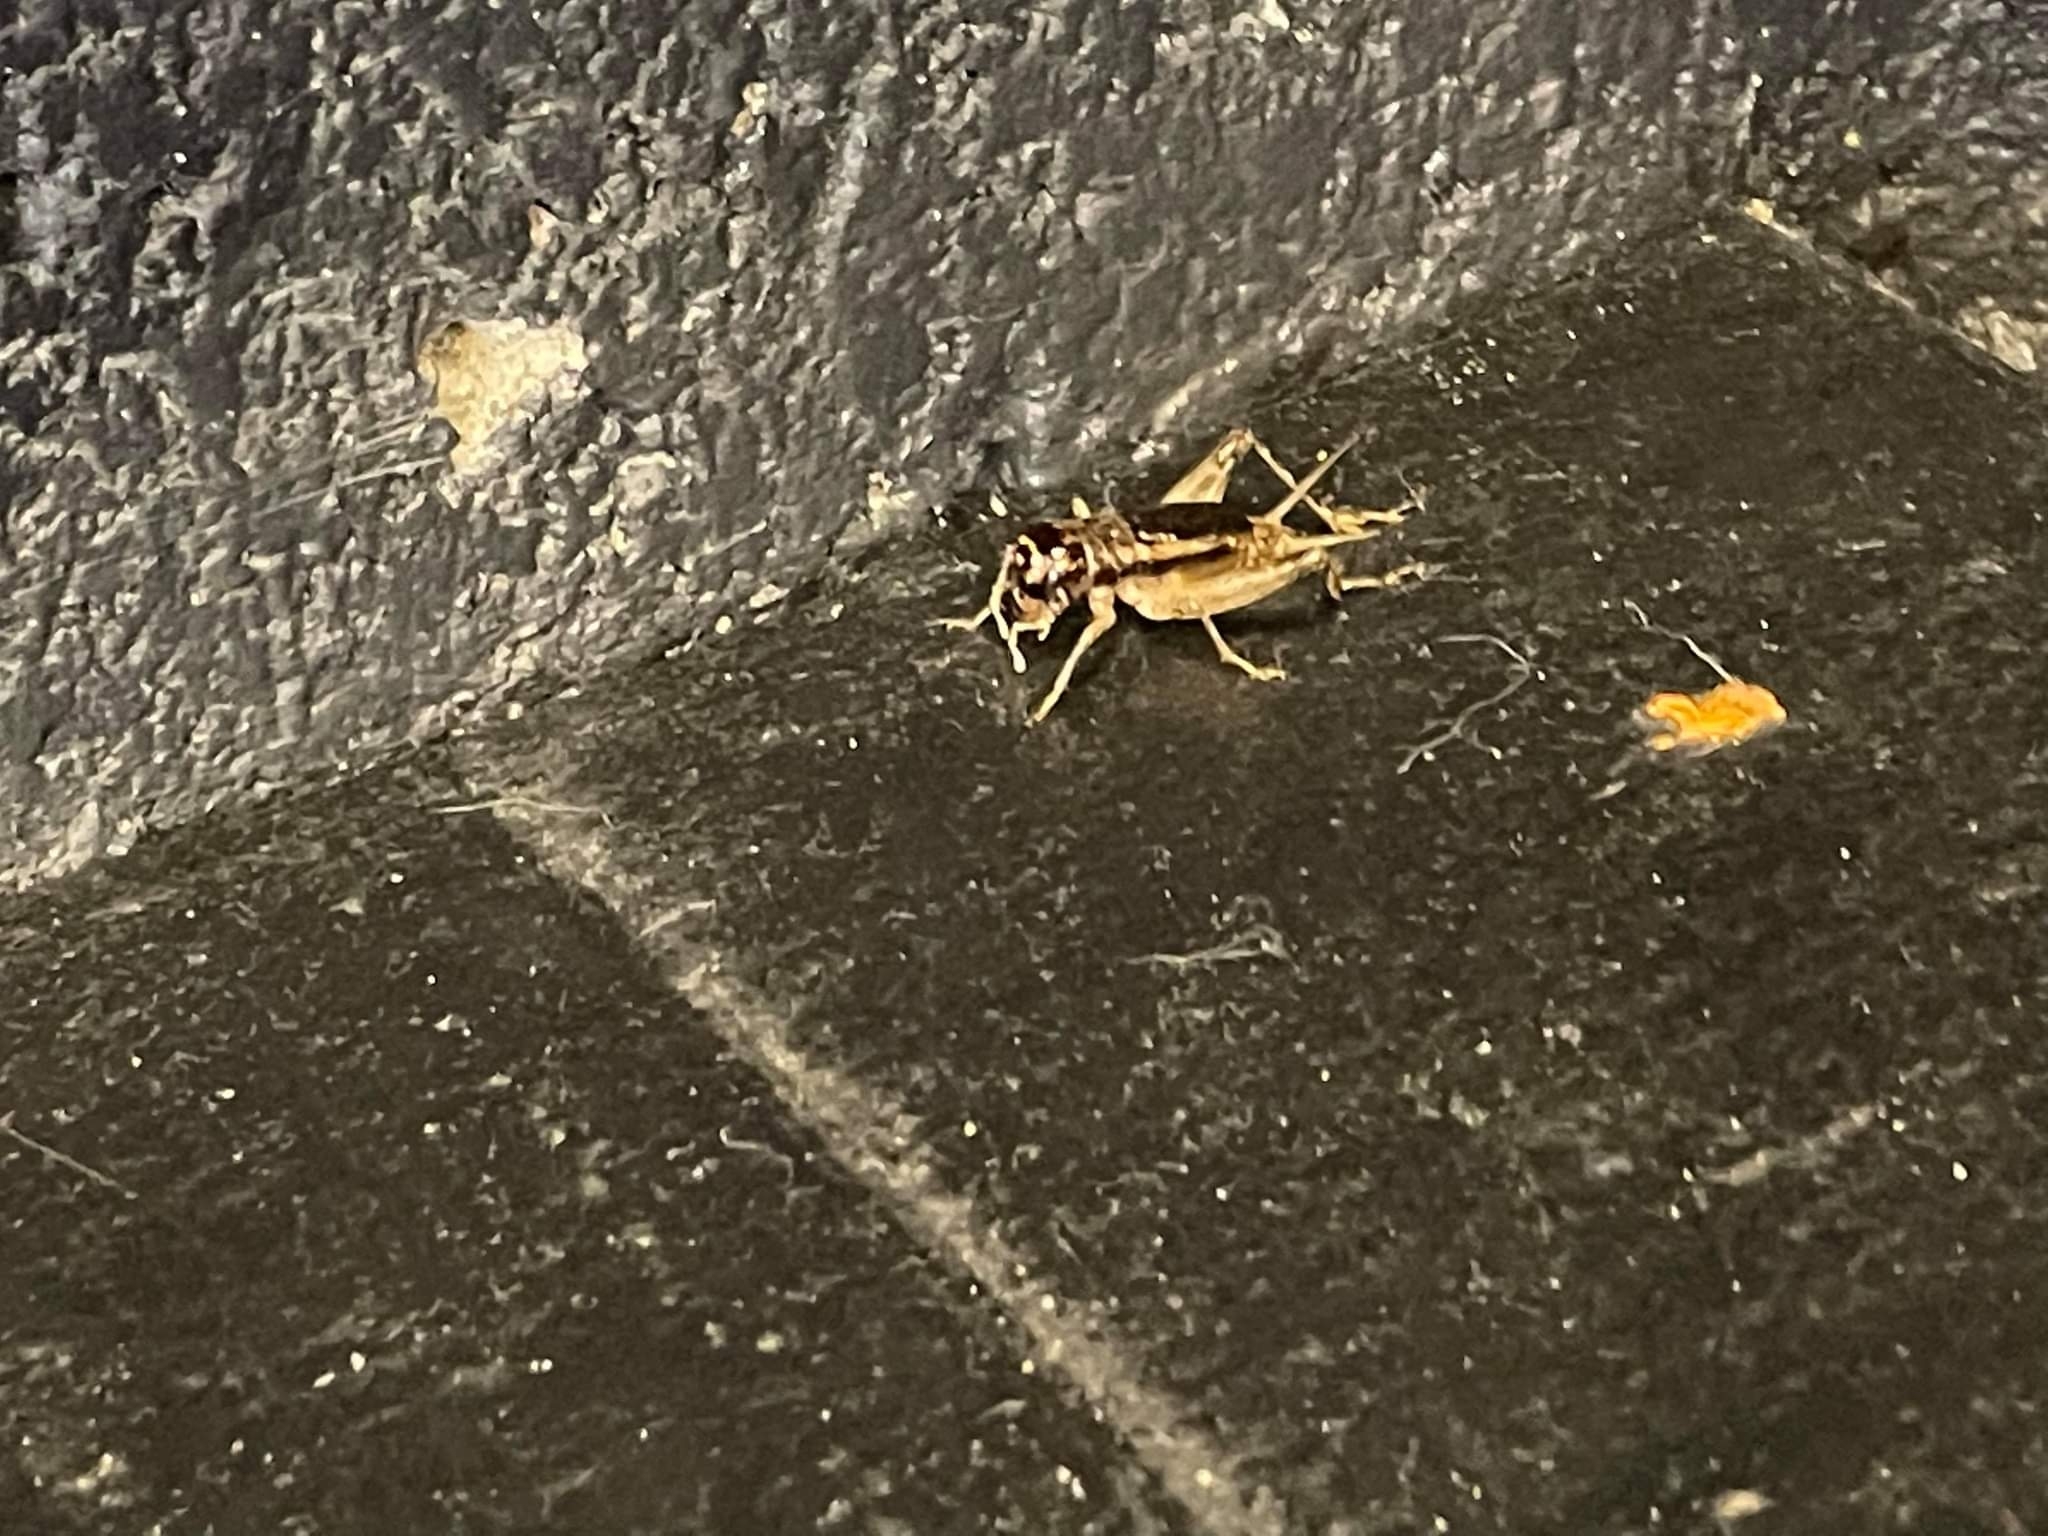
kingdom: Animalia
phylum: Arthropoda
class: Insecta
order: Orthoptera
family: Gryllidae
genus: Velarifictorus
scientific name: Velarifictorus micado
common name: Japanese burrowing cricket
